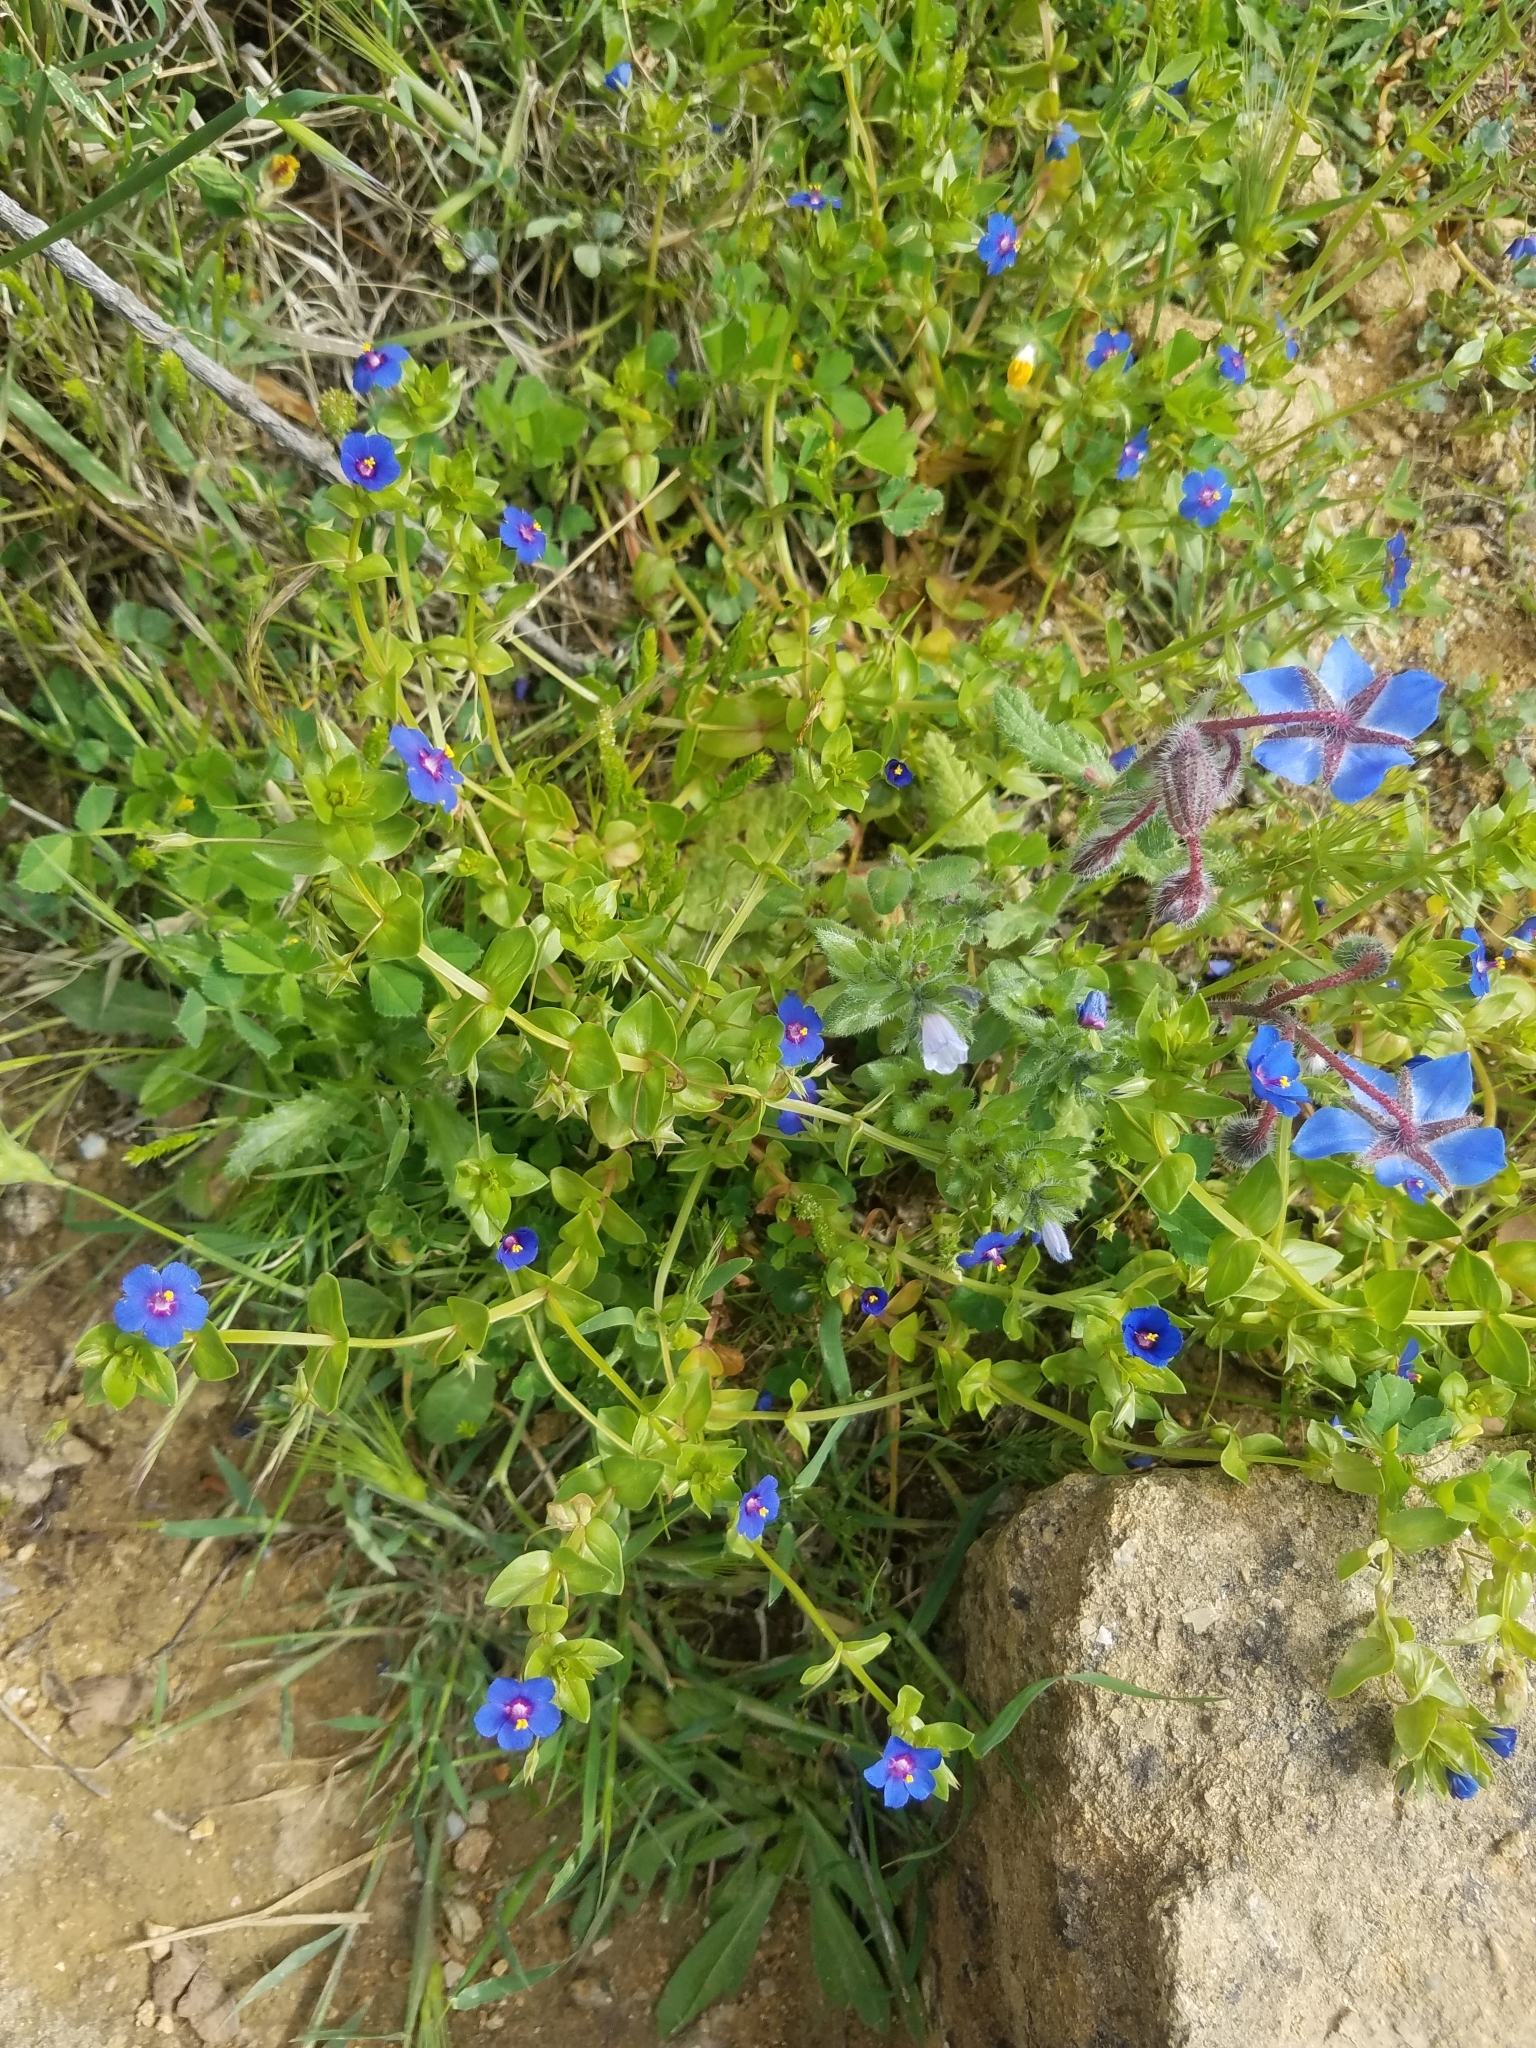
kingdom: Plantae
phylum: Tracheophyta
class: Magnoliopsida
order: Boraginales
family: Boraginaceae
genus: Borago
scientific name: Borago officinalis
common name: Borage
